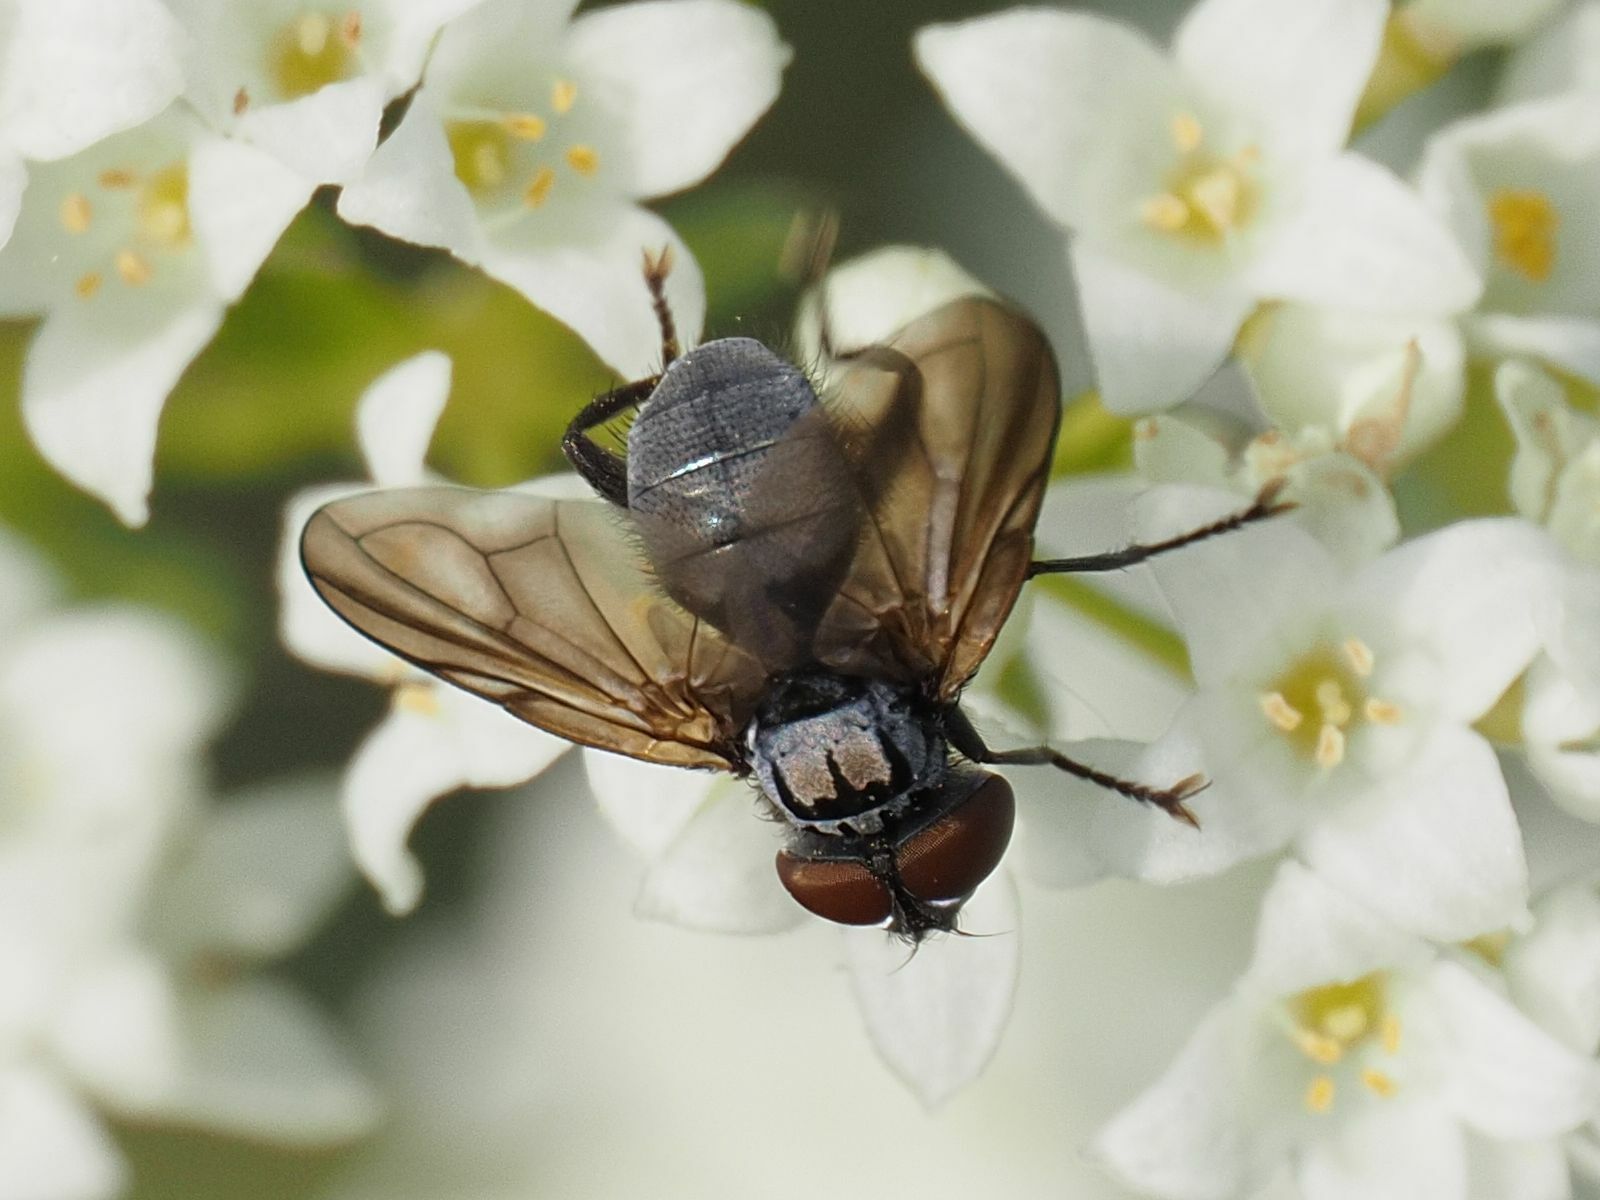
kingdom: Animalia
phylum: Arthropoda
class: Insecta
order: Diptera
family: Tachinidae
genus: Phasia
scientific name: Phasia obesa
